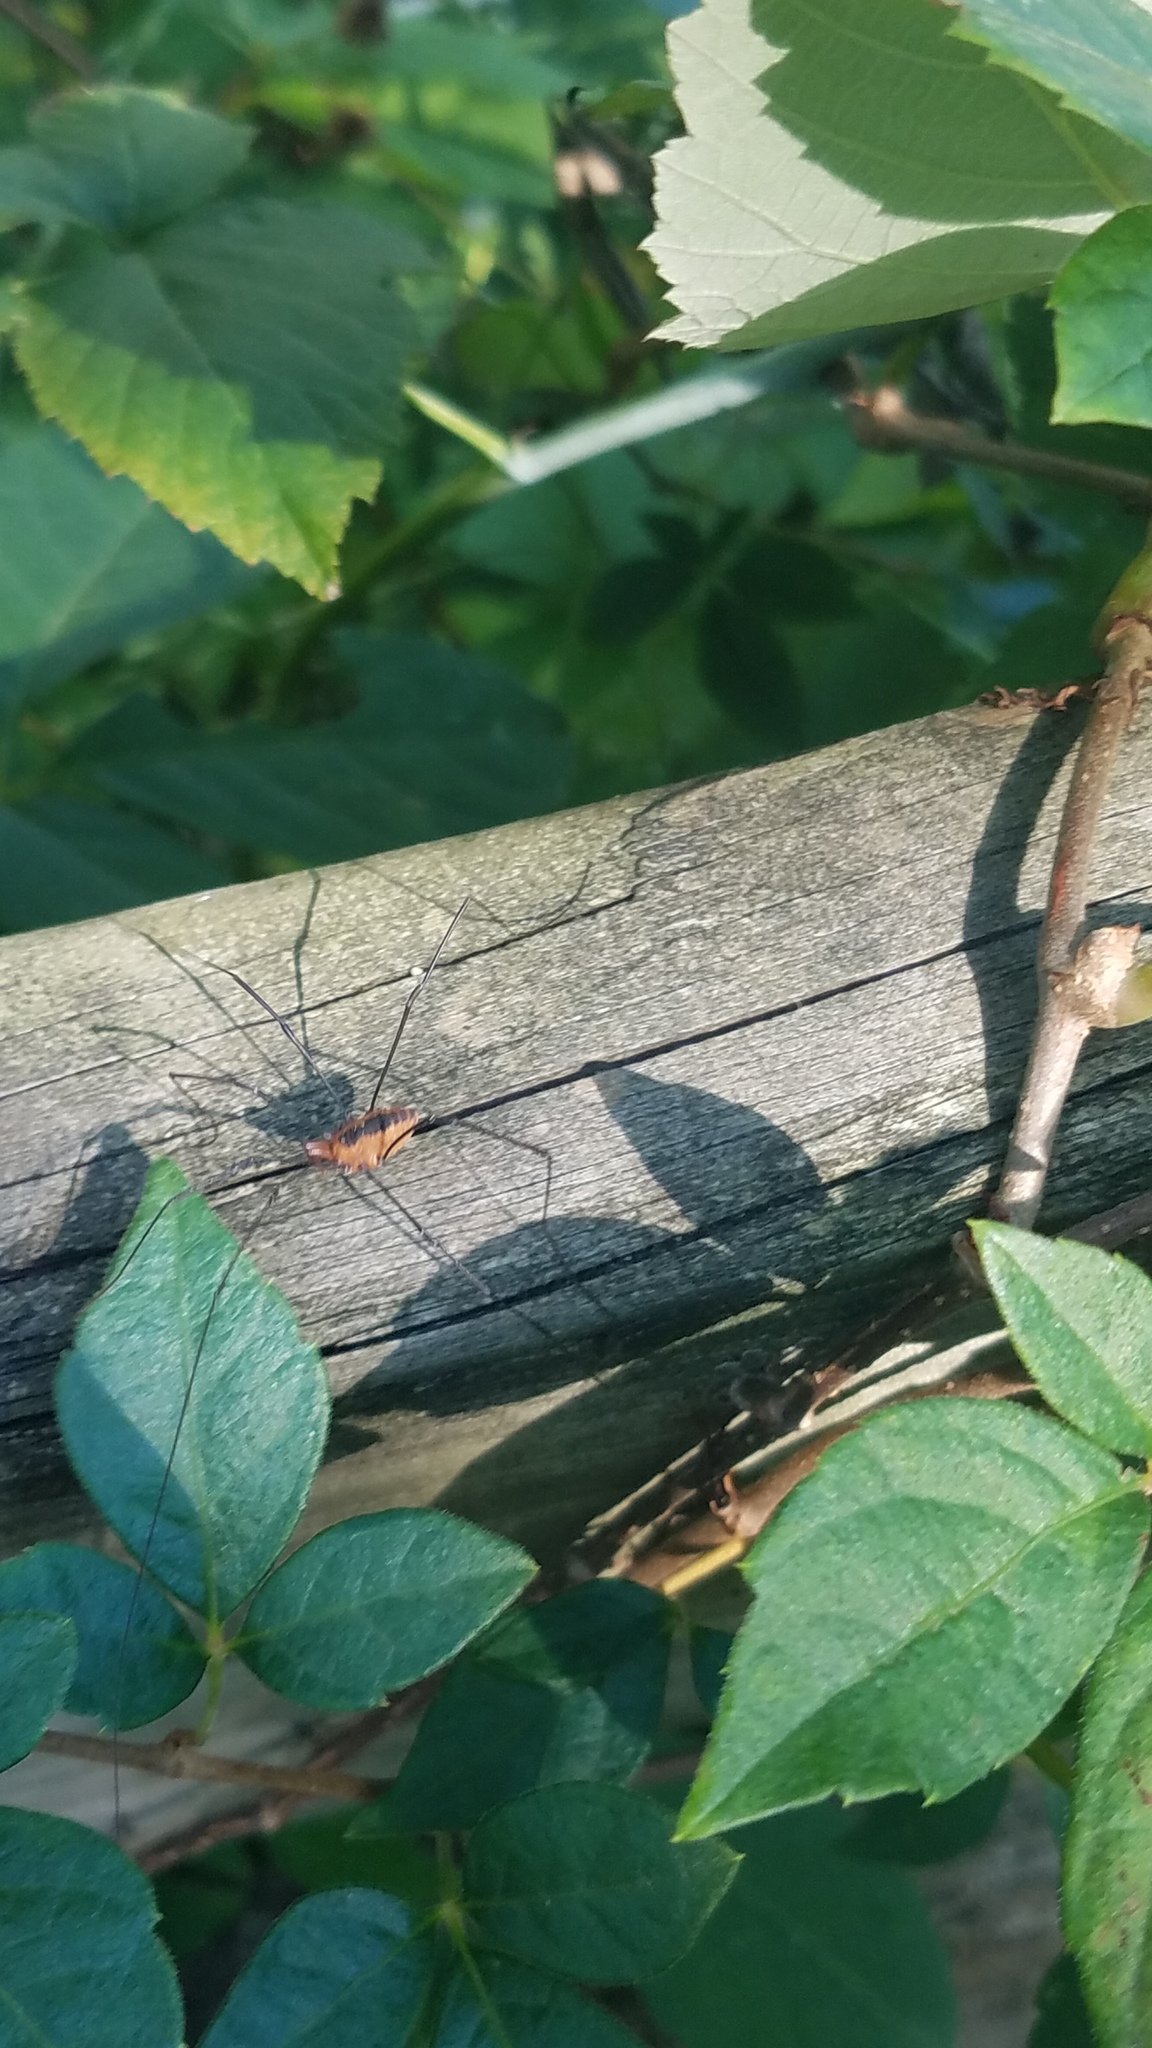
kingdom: Animalia
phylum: Arthropoda
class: Arachnida
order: Opiliones
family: Sclerosomatidae
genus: Leiobunum
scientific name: Leiobunum vittatum
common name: Eastern harvestman
